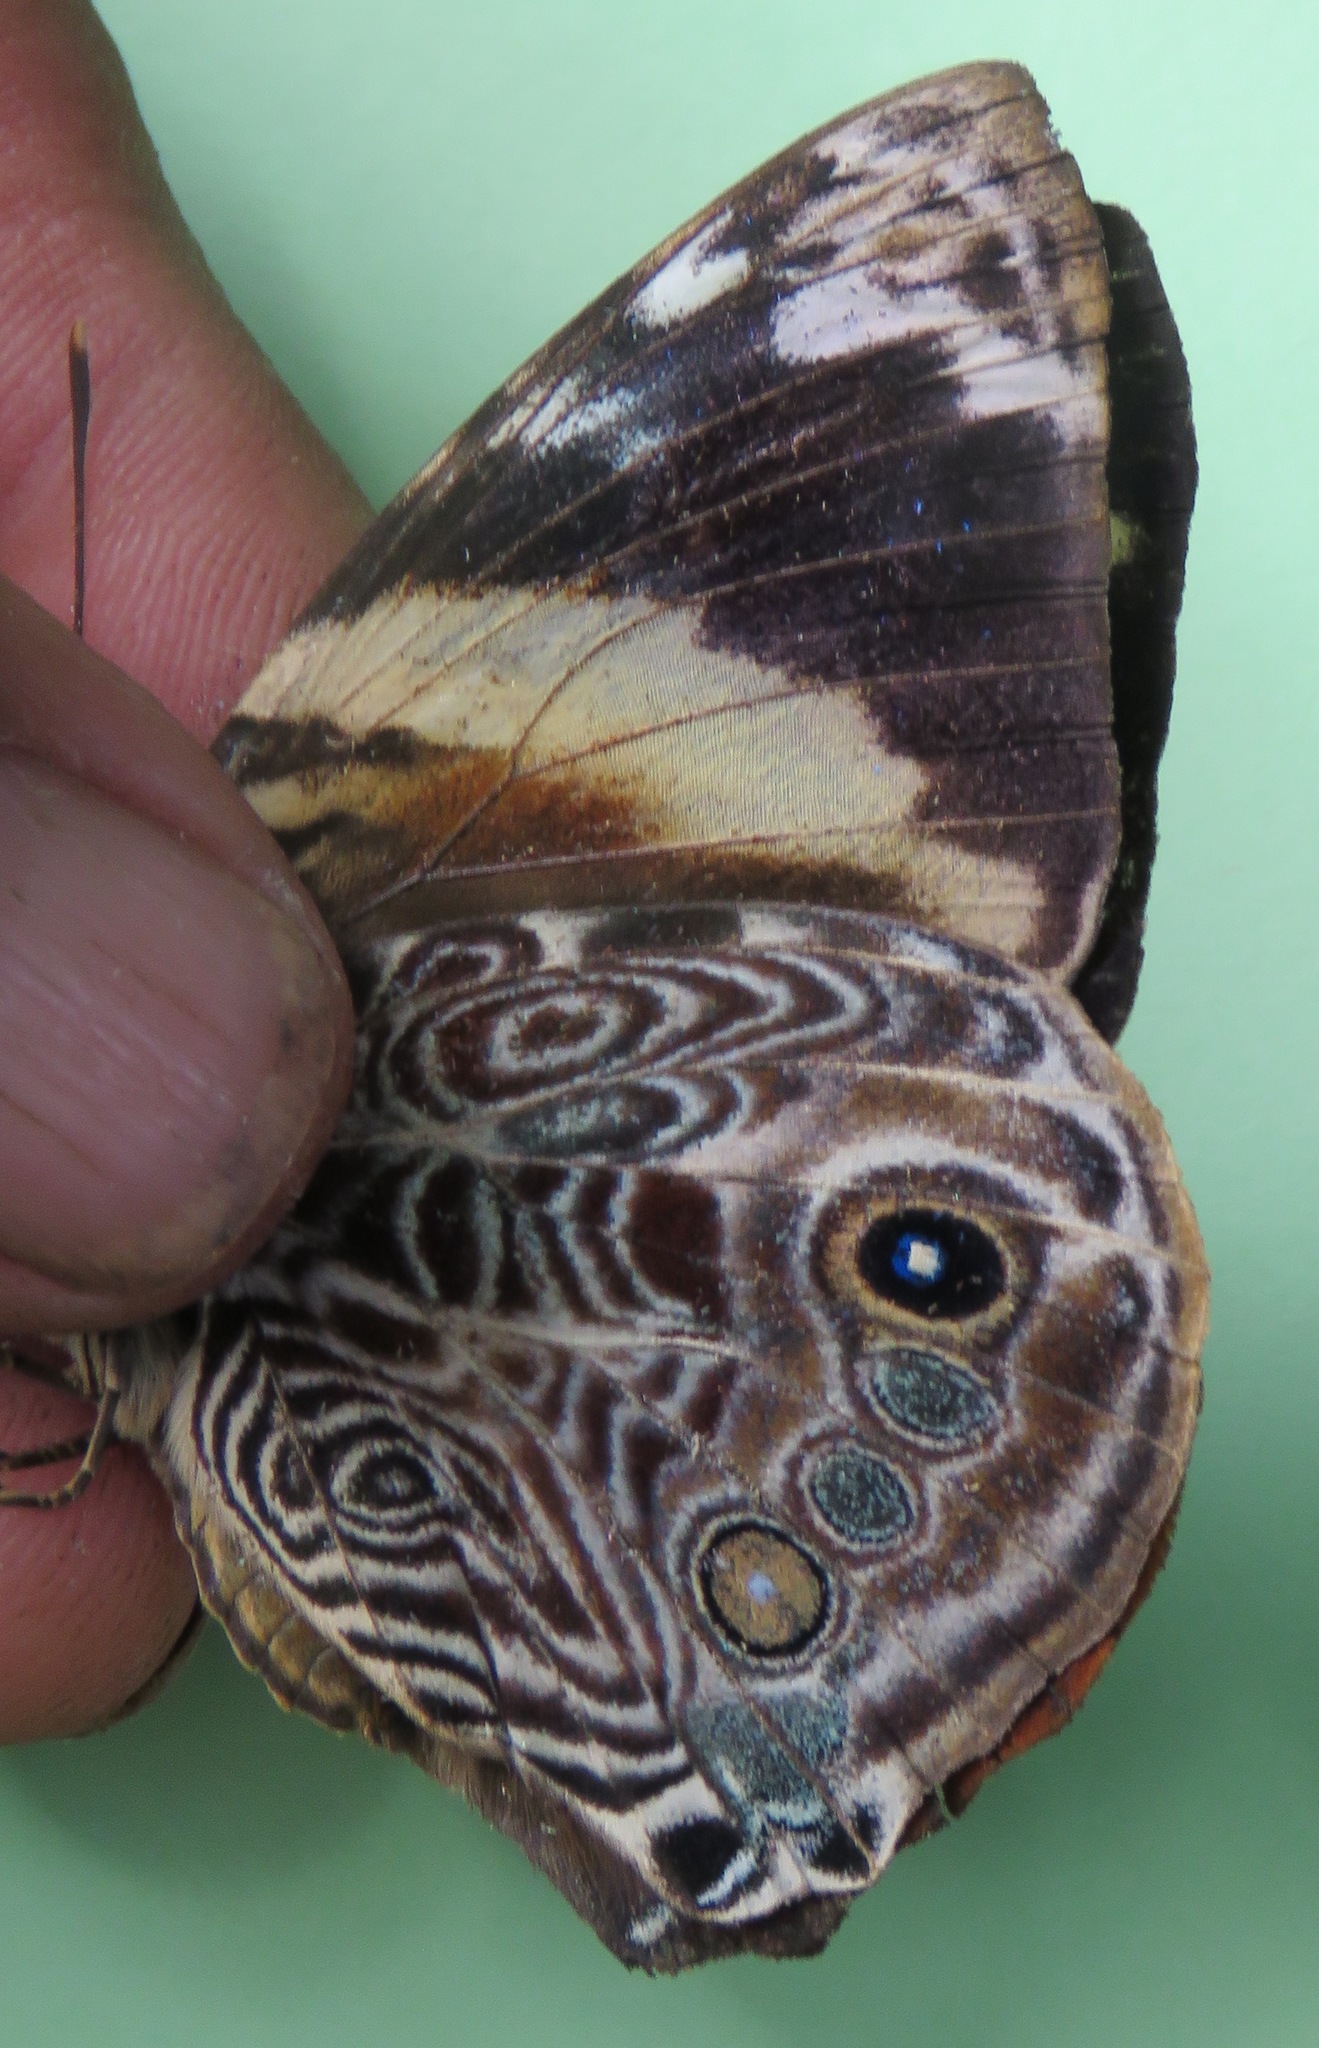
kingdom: Animalia
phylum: Arthropoda
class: Insecta
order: Lepidoptera
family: Nymphalidae
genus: Smyrna
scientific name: Smyrna blomfildia
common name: Blomfild's beauty
